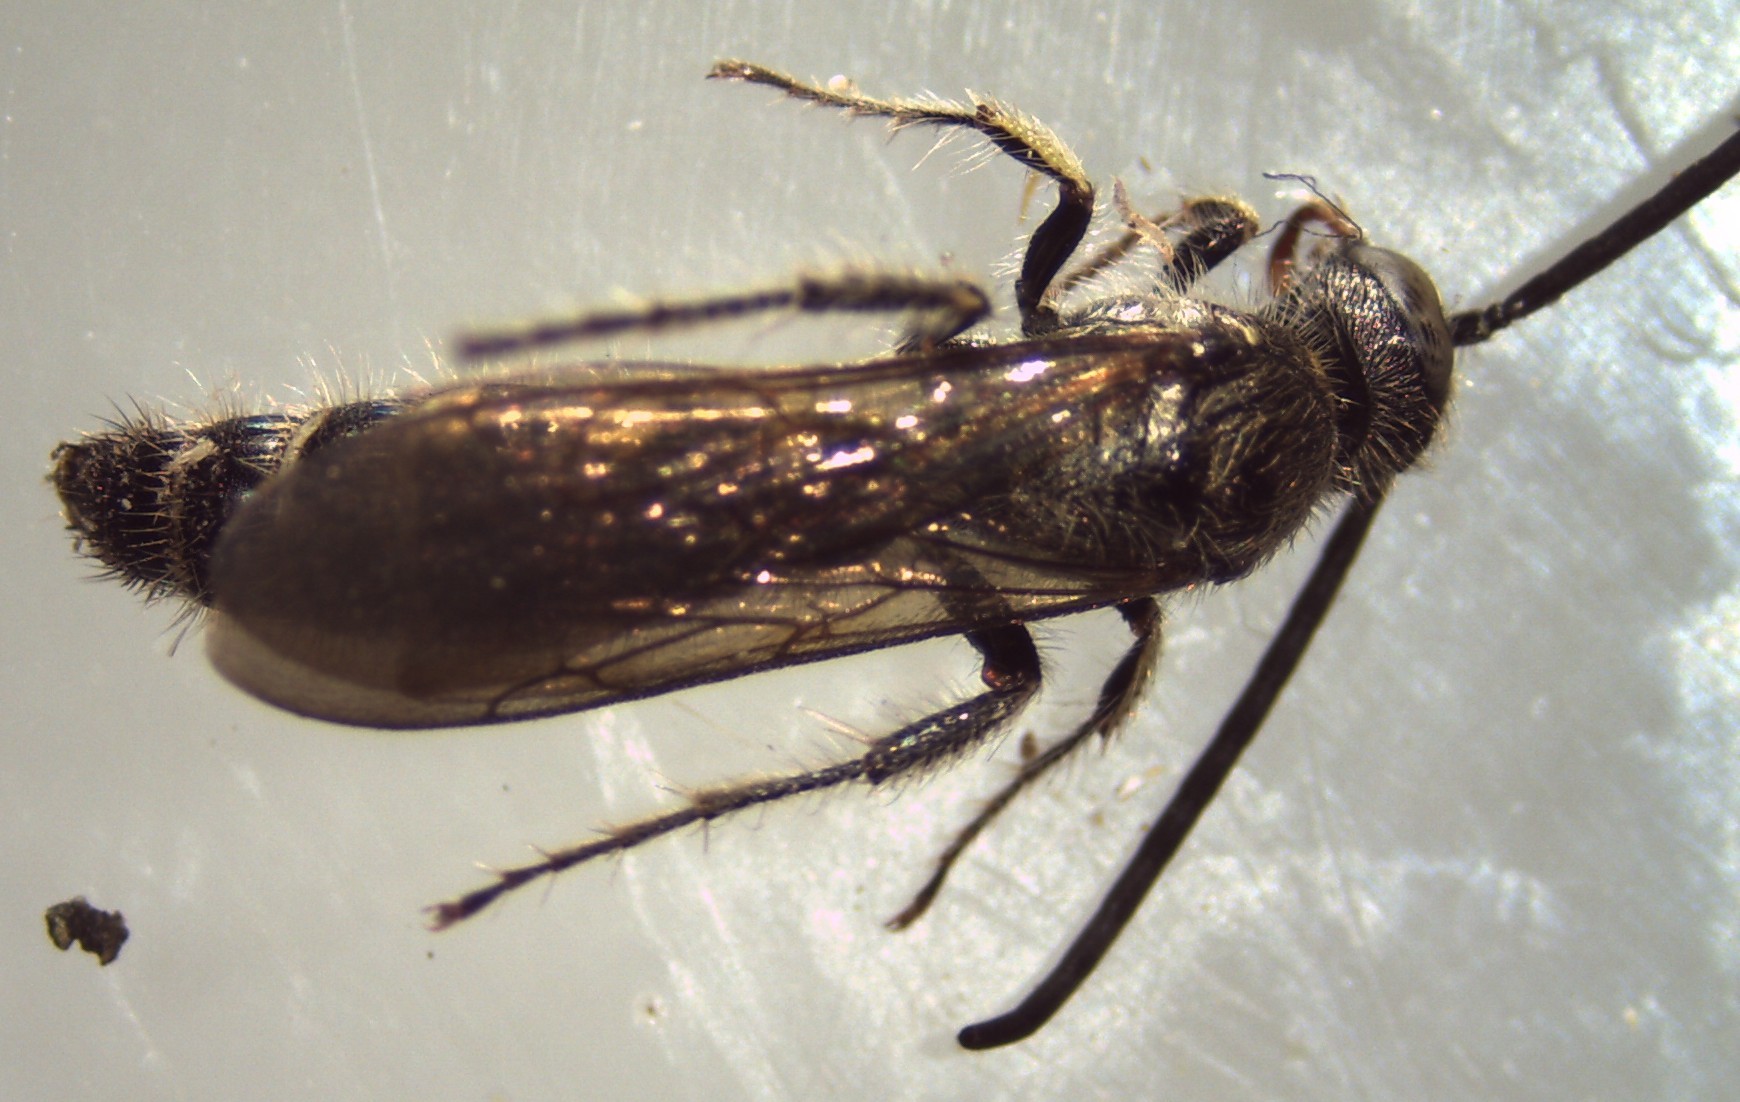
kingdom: Animalia
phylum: Arthropoda
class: Insecta
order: Hymenoptera
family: Scoliidae
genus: Campsomeris
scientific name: Campsomeris annulata
